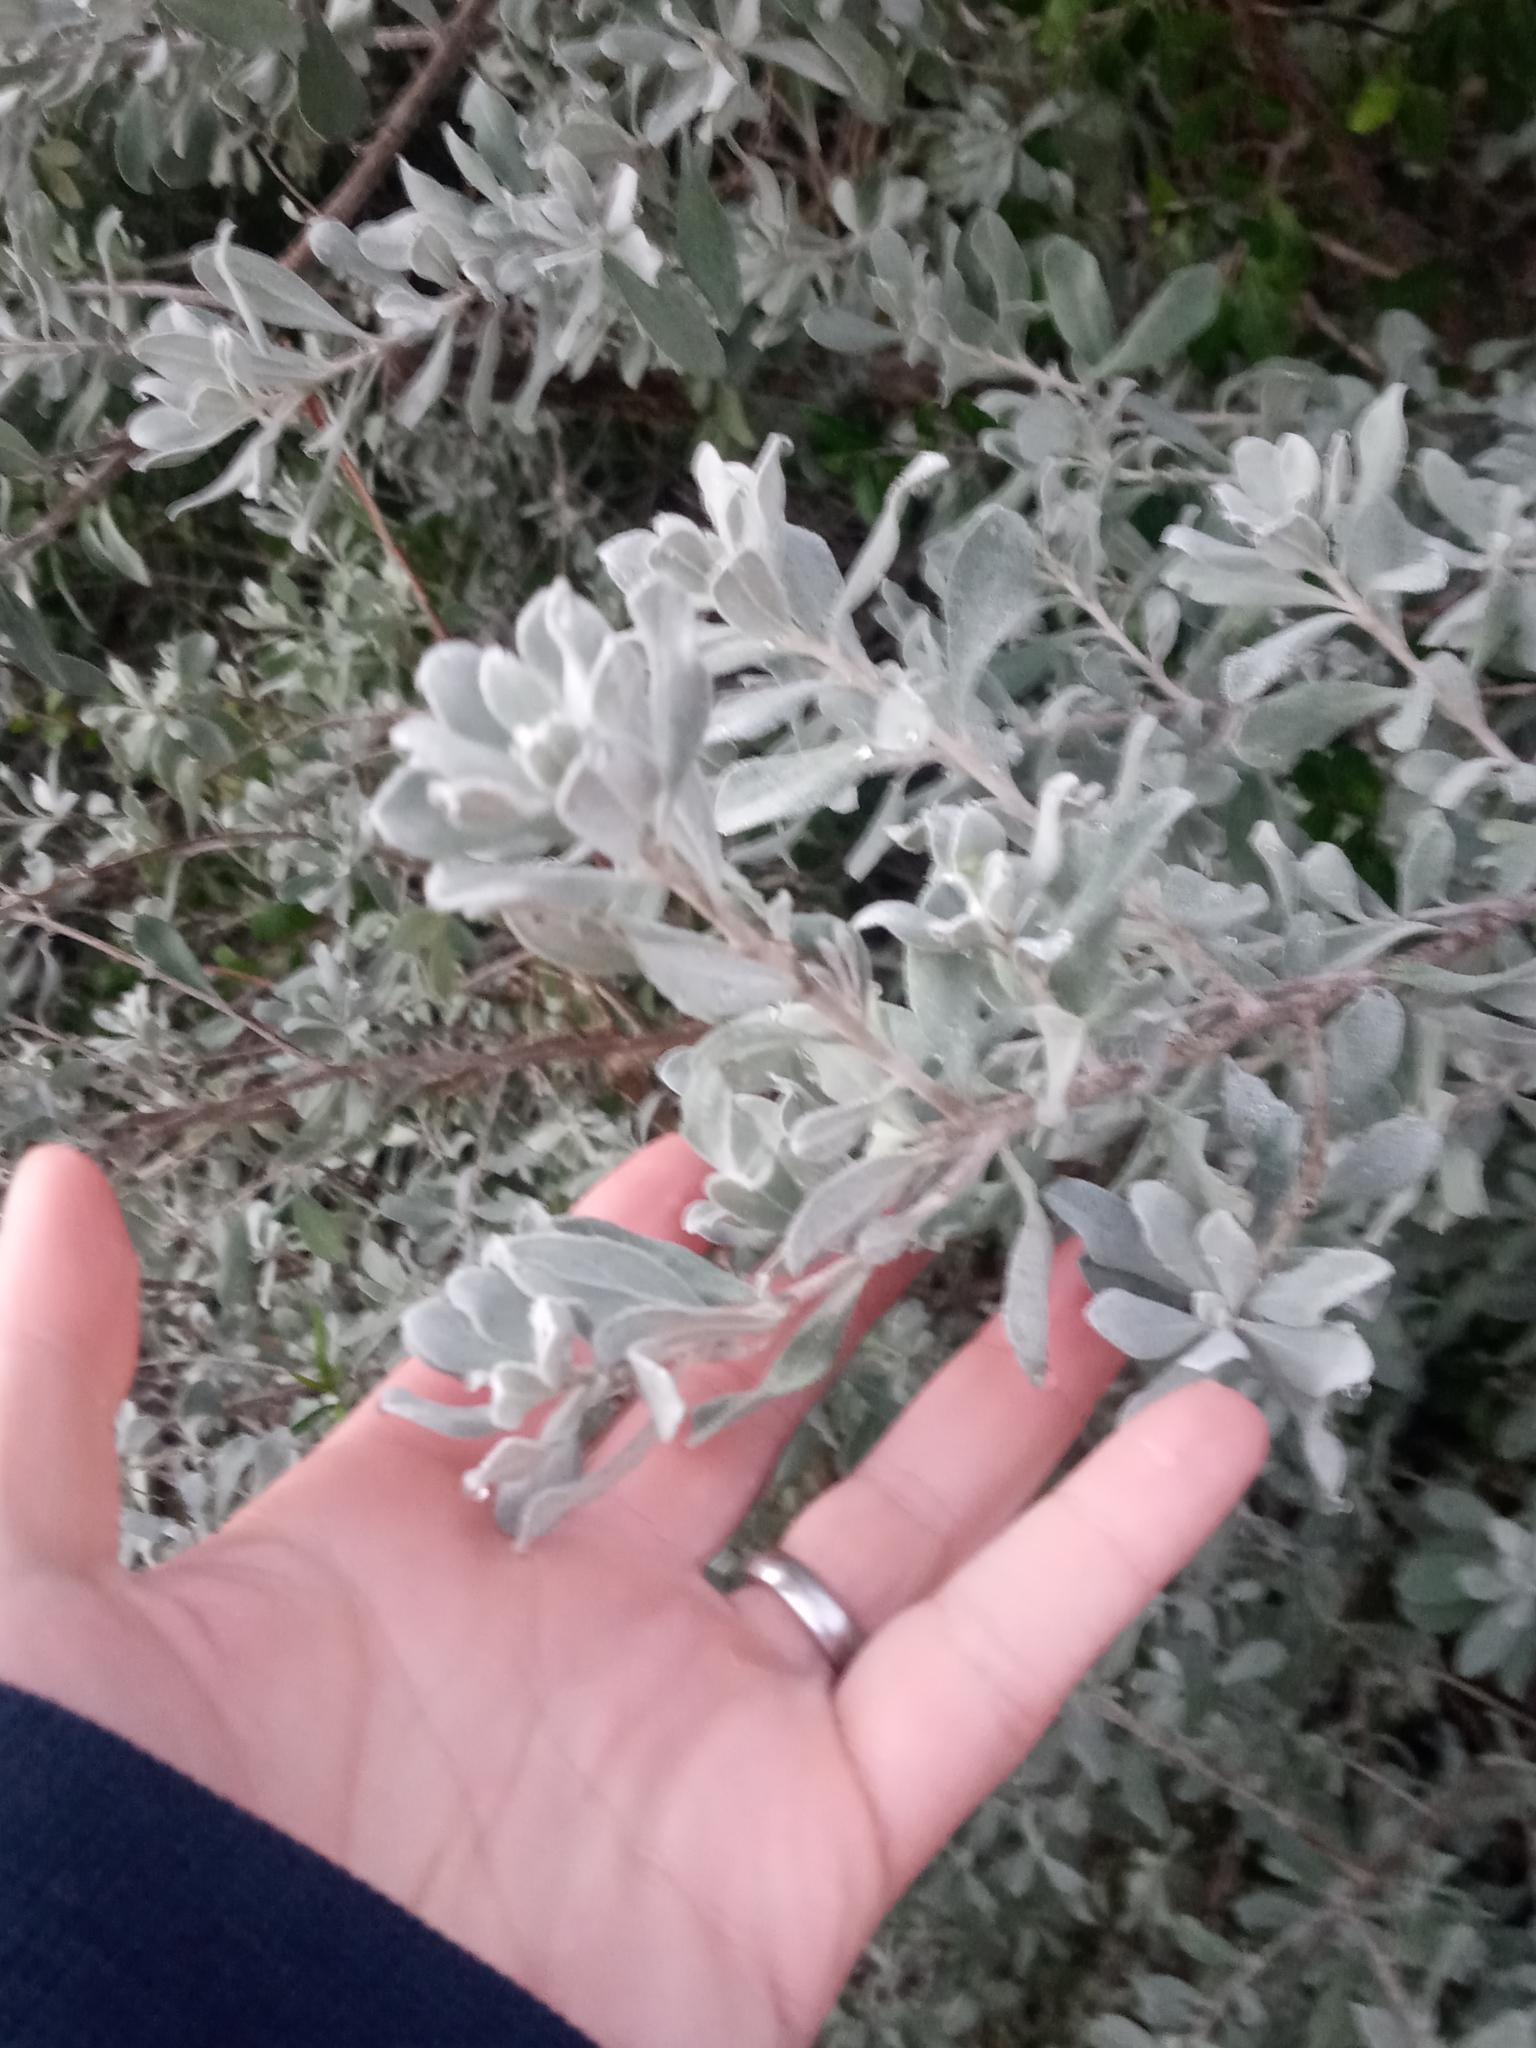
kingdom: Plantae
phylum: Tracheophyta
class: Magnoliopsida
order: Lamiales
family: Scrophulariaceae
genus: Leucophyllum
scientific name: Leucophyllum frutescens
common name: Texas silverleaf
